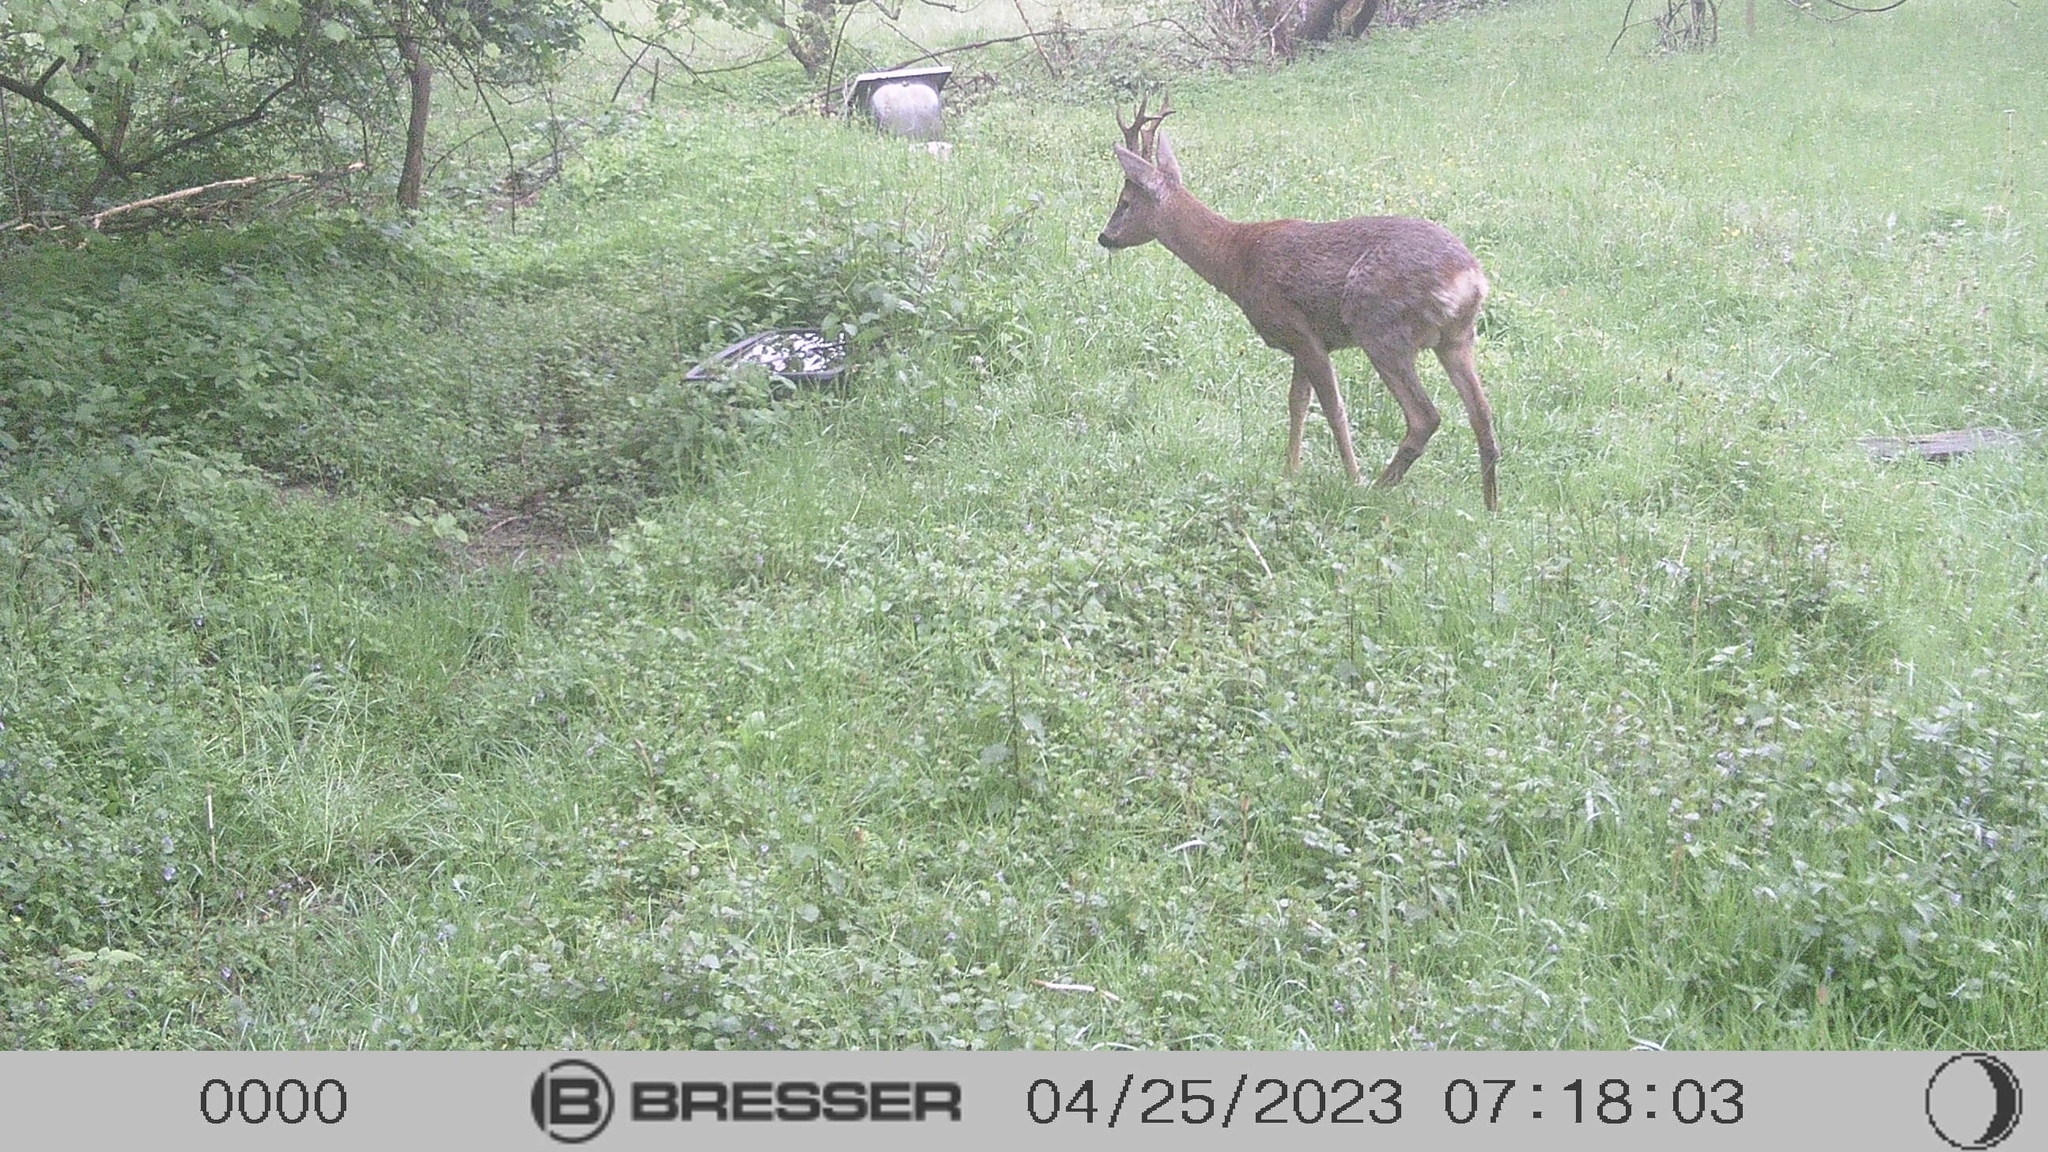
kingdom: Animalia
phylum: Chordata
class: Mammalia
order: Artiodactyla
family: Cervidae
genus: Capreolus
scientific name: Capreolus capreolus
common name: Western roe deer
